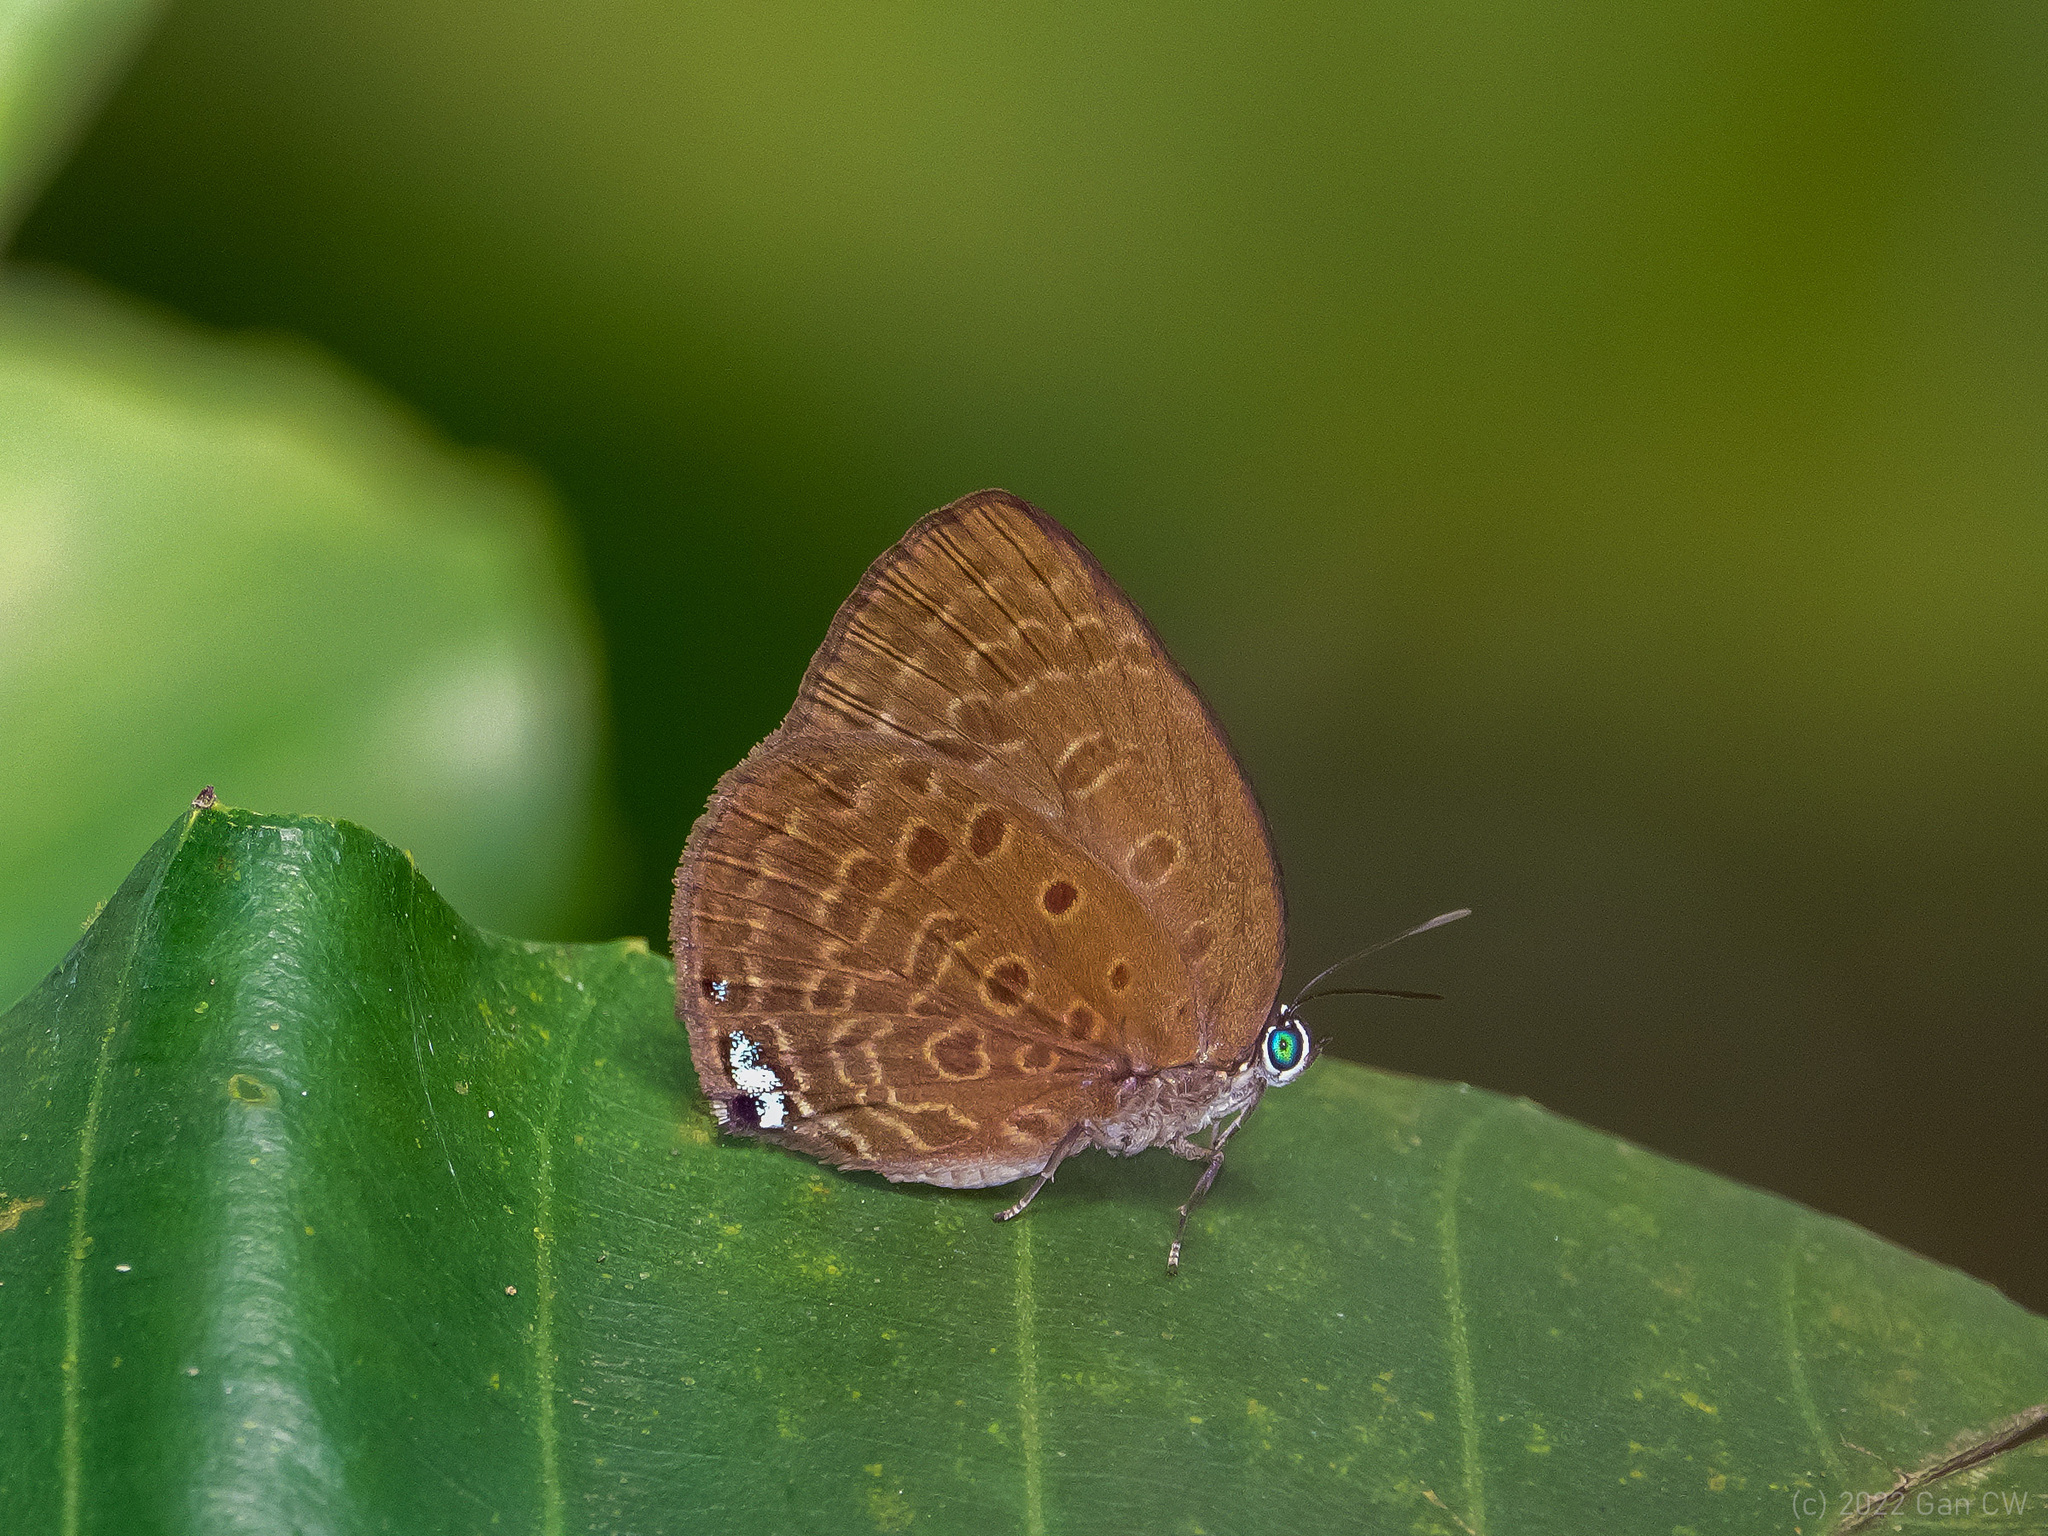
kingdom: Animalia
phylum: Arthropoda
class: Insecta
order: Lepidoptera
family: Lycaenidae
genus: Arhopala
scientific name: Arhopala major
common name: Major yellow oakblue
